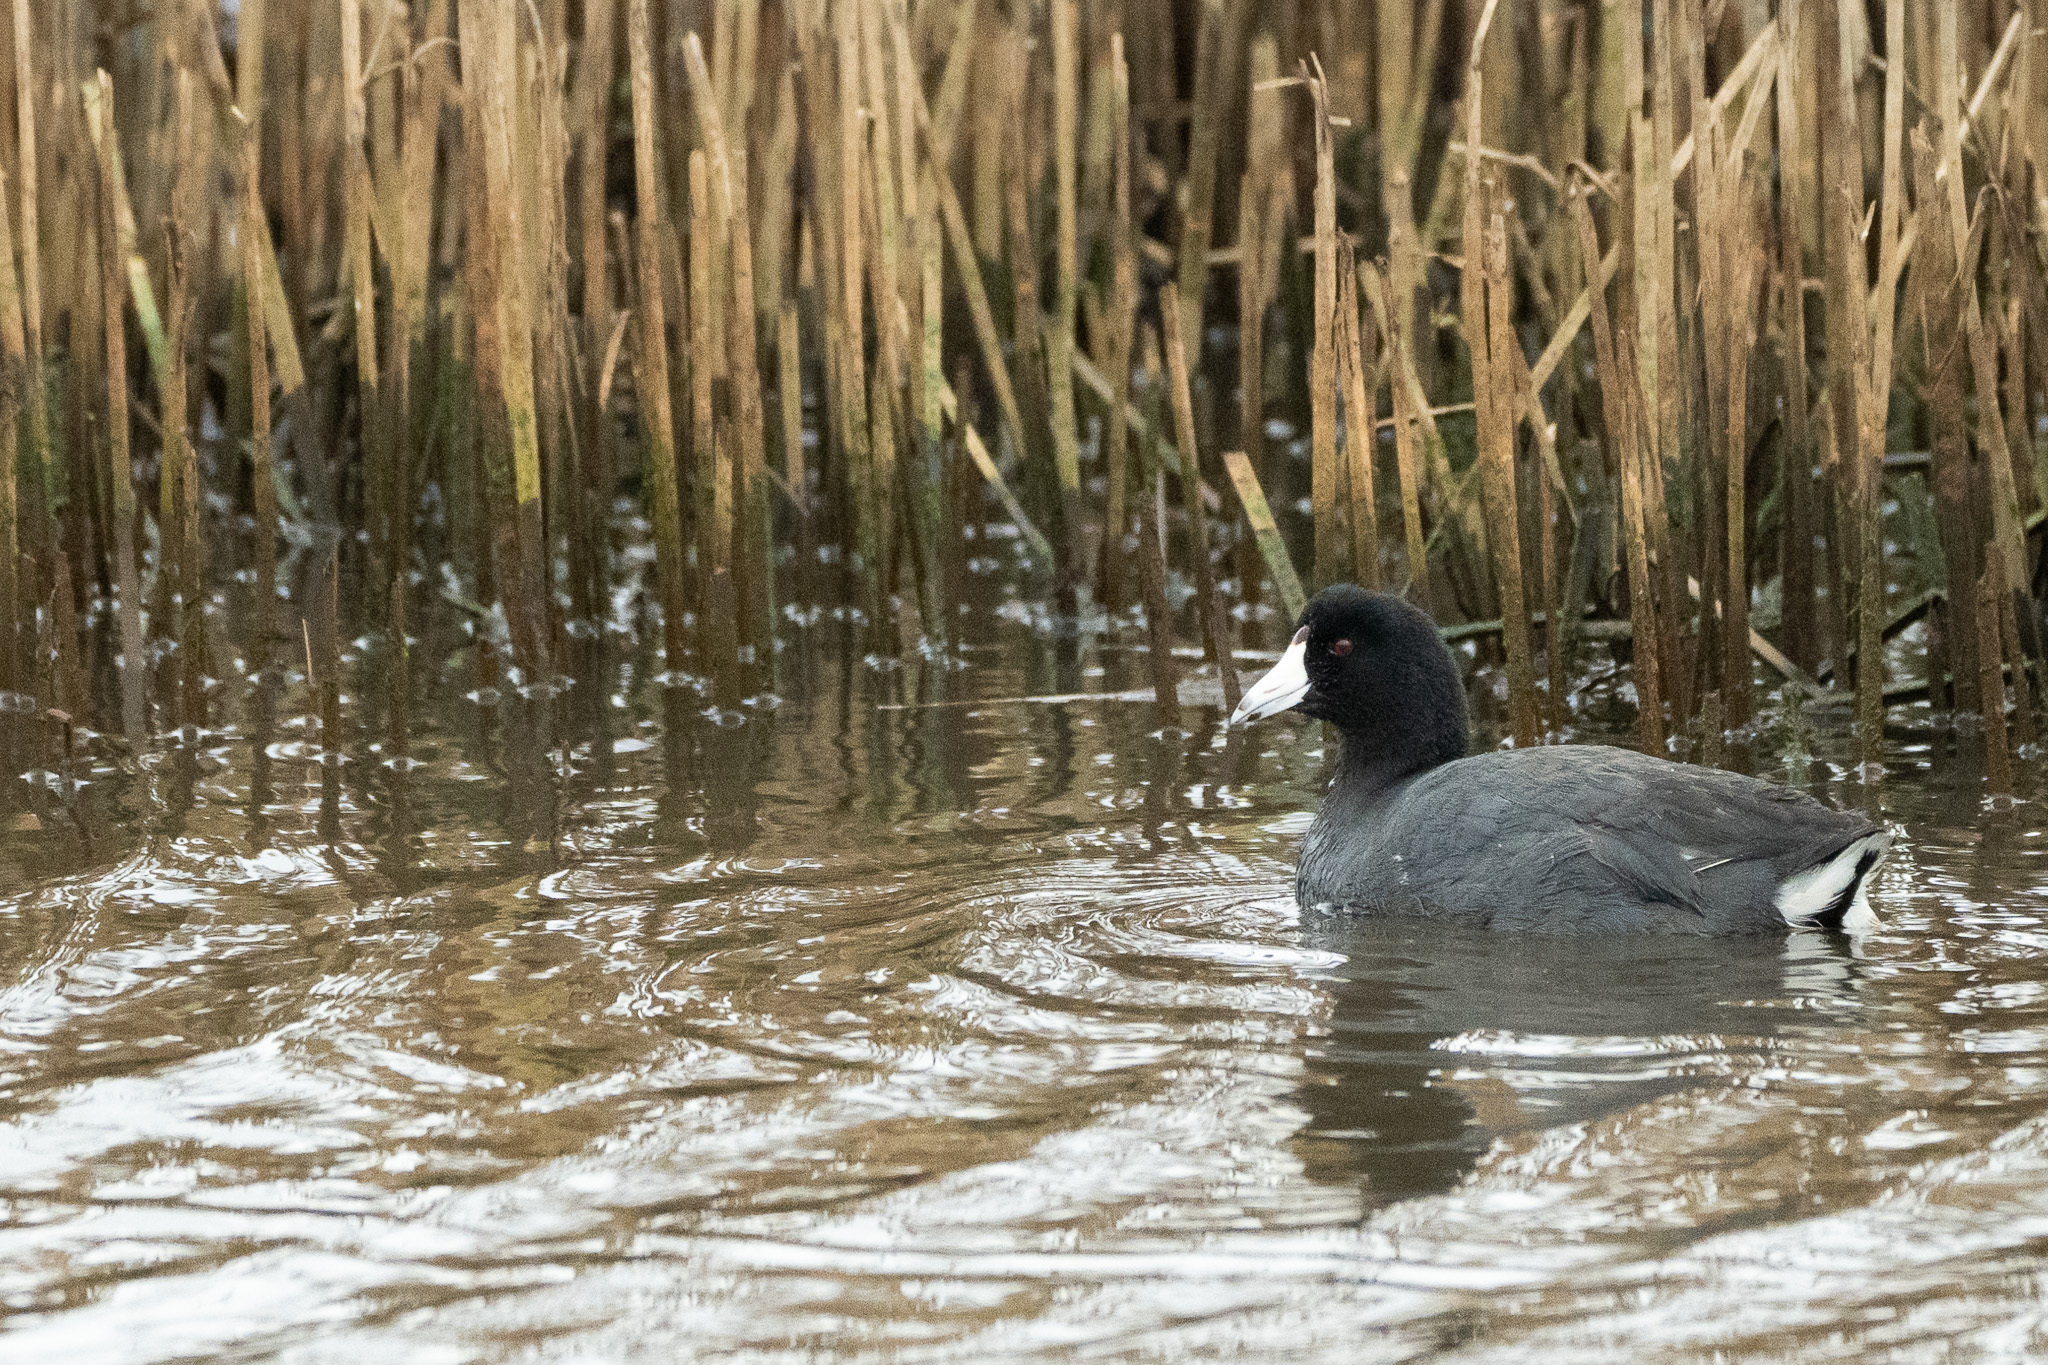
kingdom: Animalia
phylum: Chordata
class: Aves
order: Gruiformes
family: Rallidae
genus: Fulica
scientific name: Fulica americana
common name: American coot
